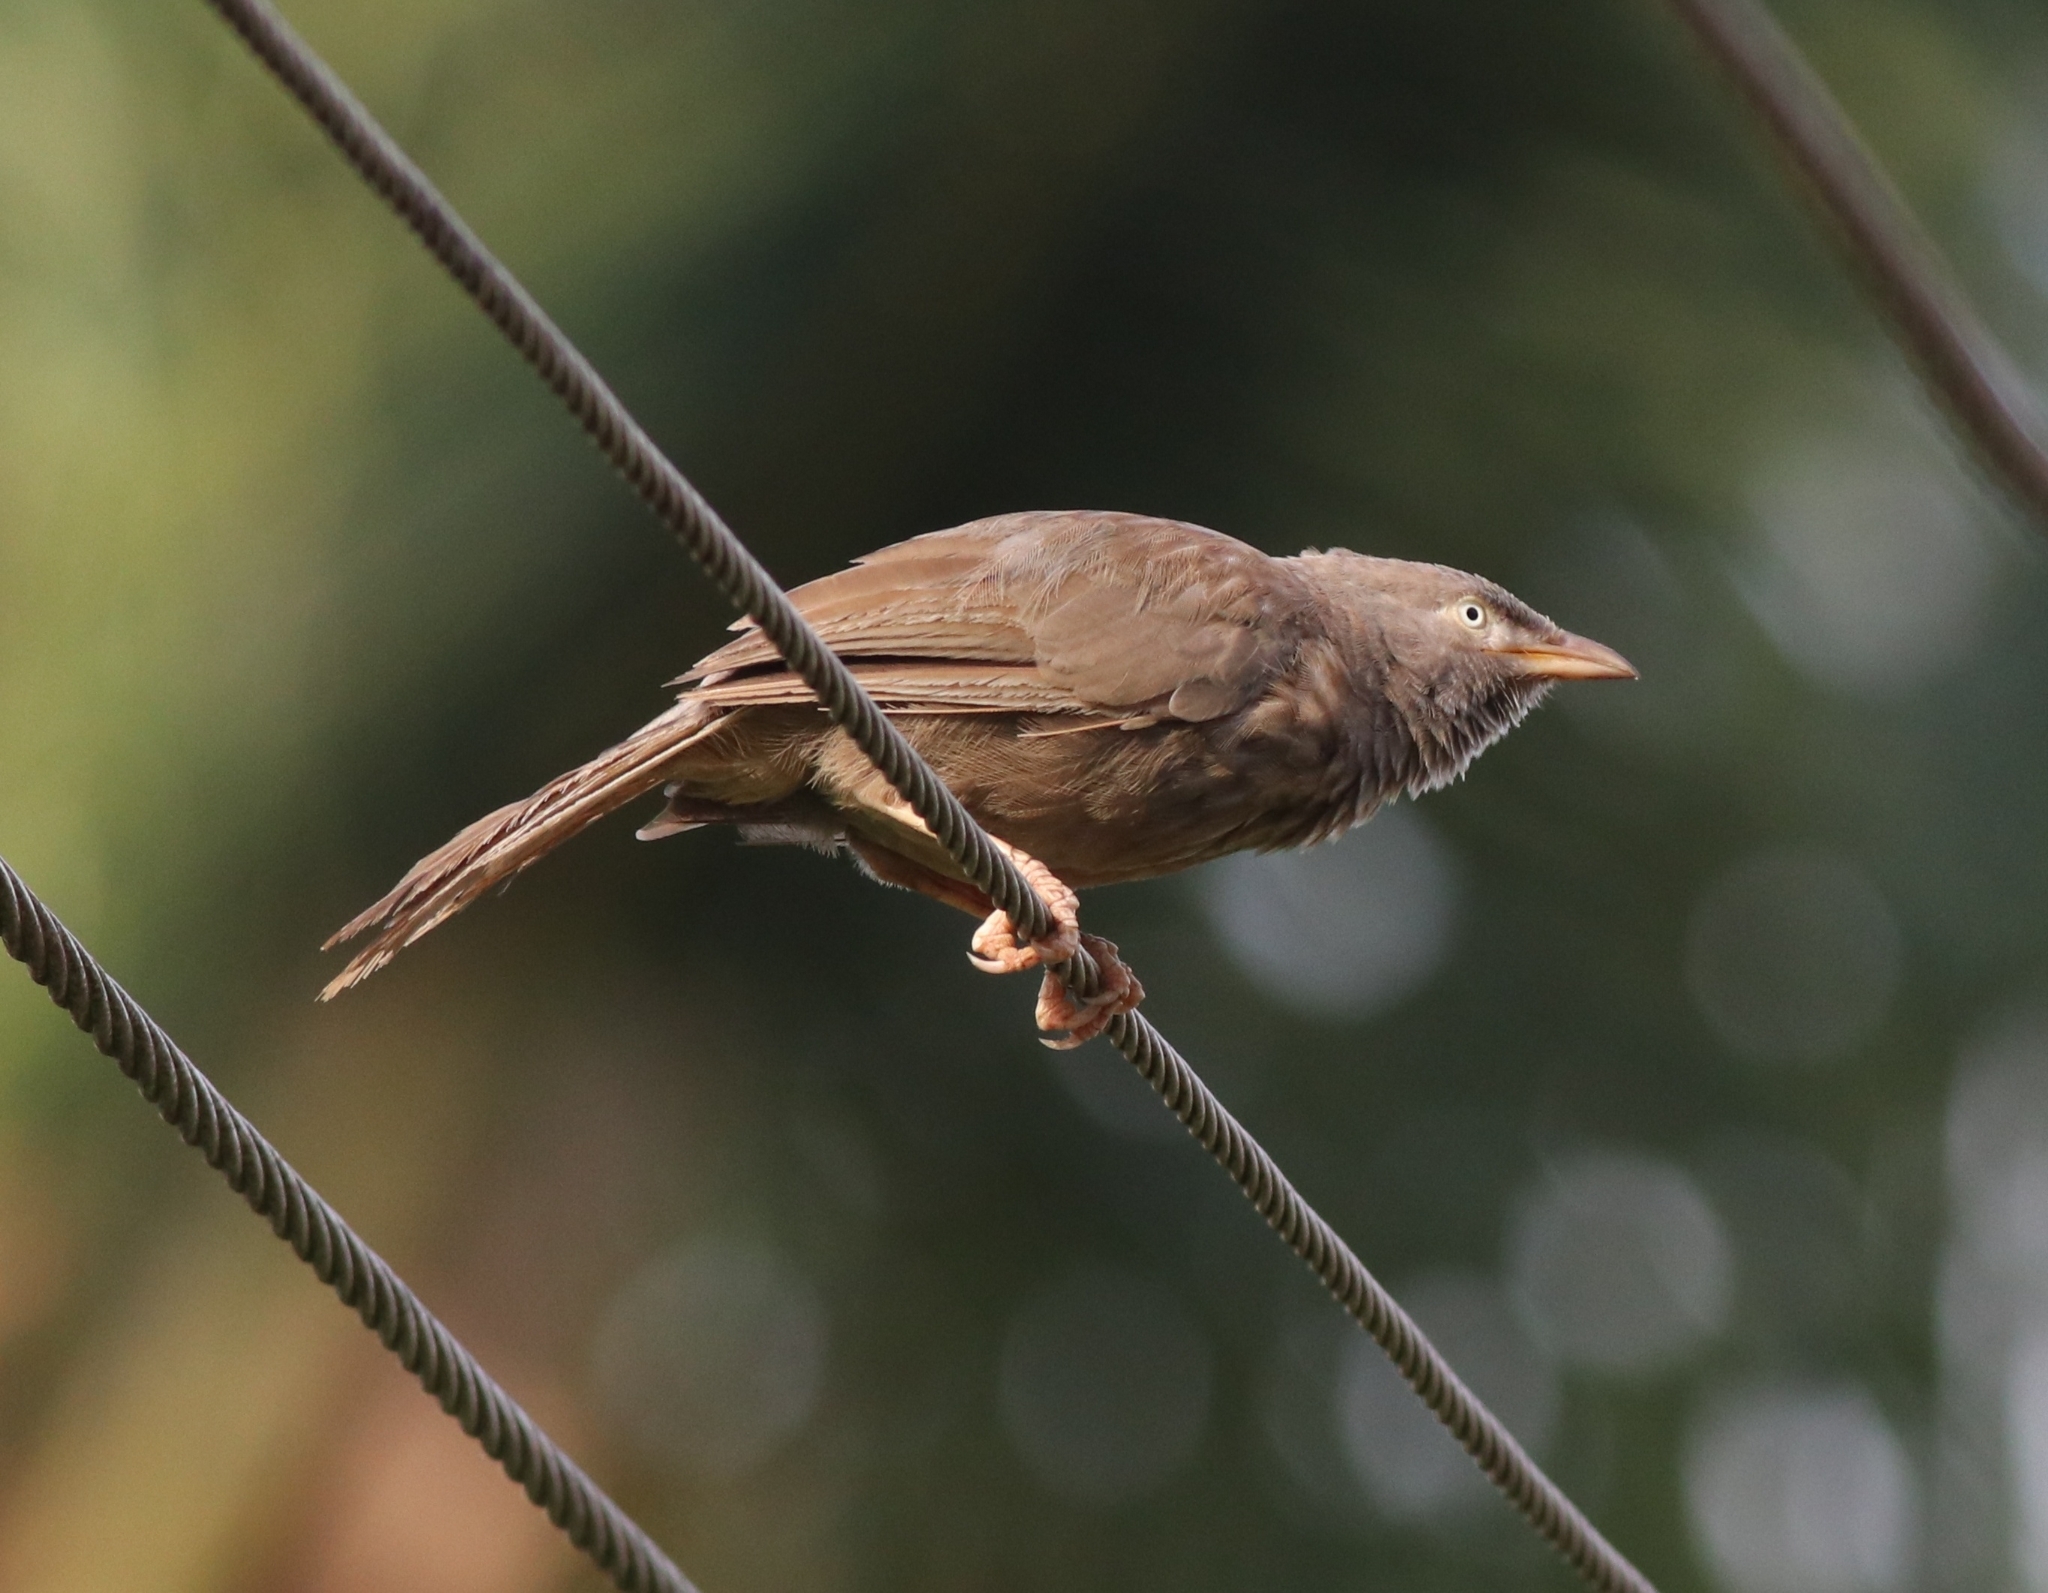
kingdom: Animalia
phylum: Chordata
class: Aves
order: Passeriformes
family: Leiothrichidae
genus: Turdoides
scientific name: Turdoides striata
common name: Jungle babbler
